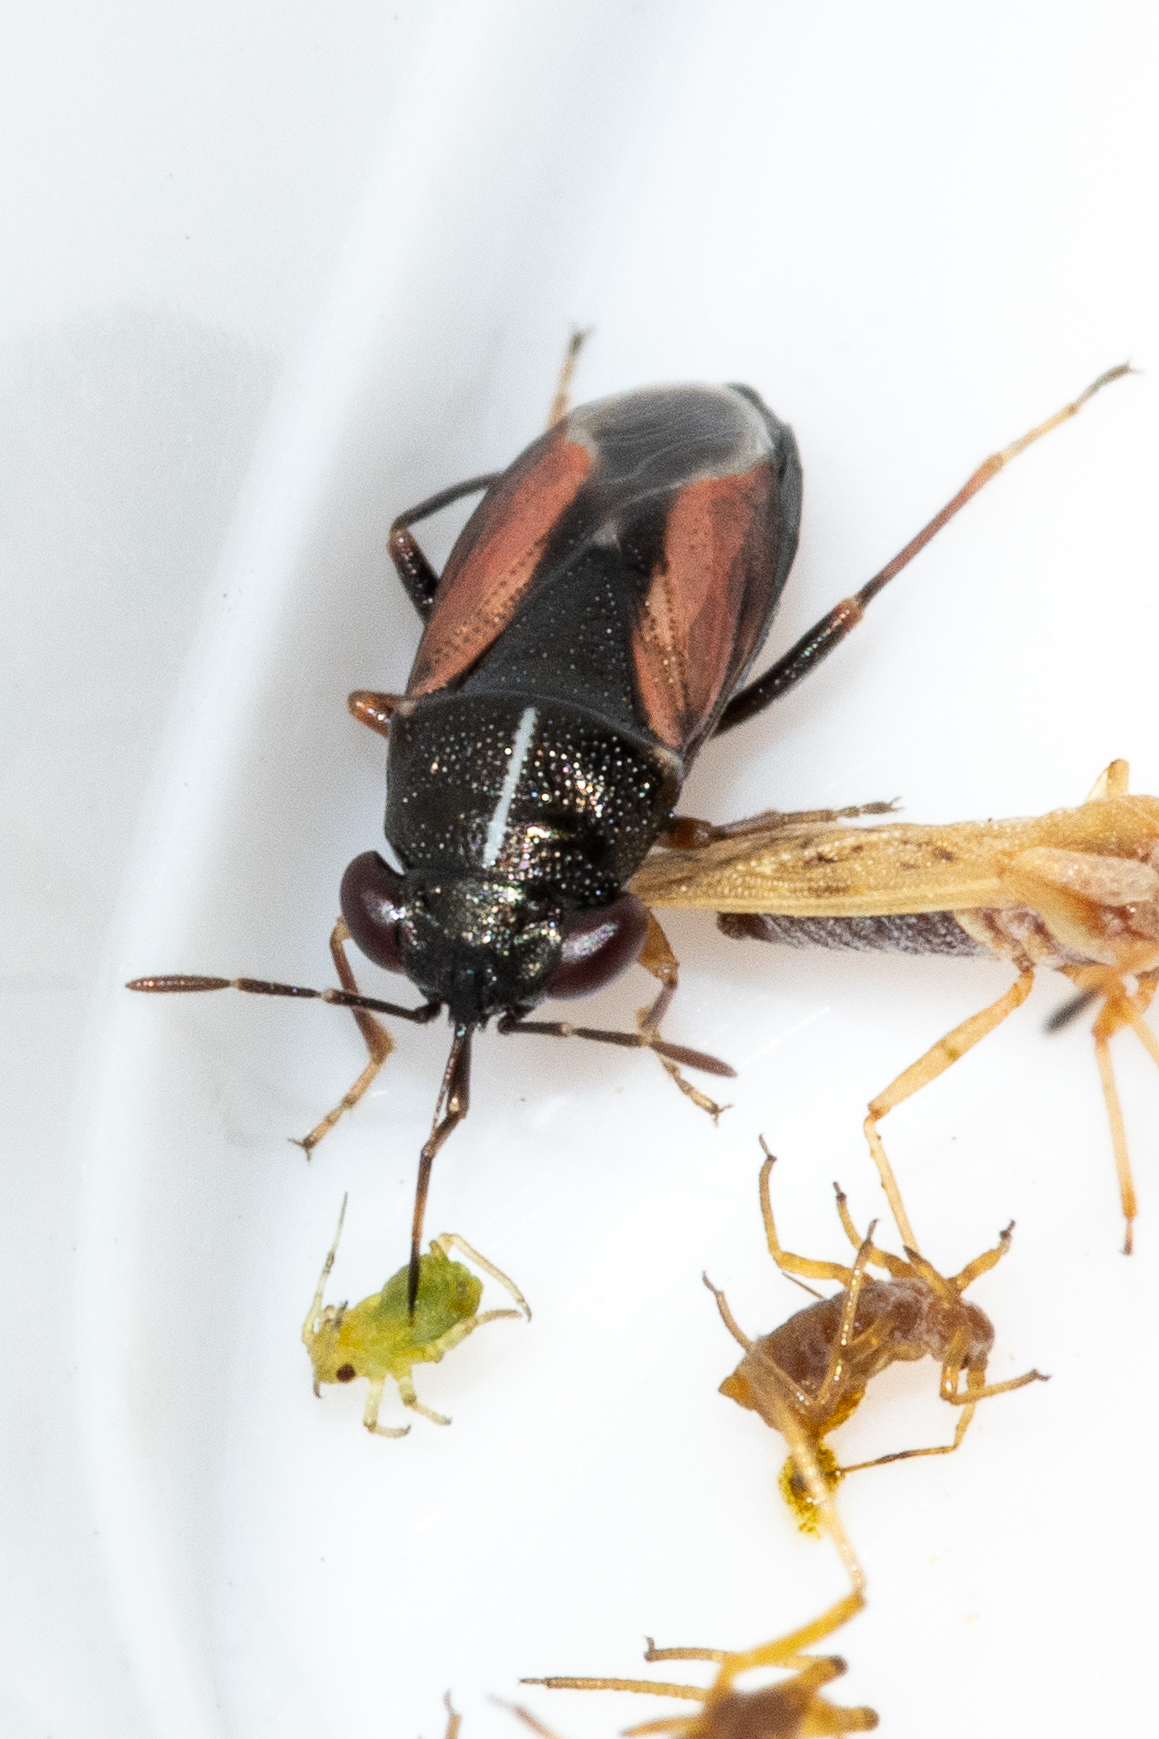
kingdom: Animalia
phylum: Arthropoda
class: Insecta
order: Hemiptera
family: Geocoridae
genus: Geocoris
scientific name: Geocoris lineolus
